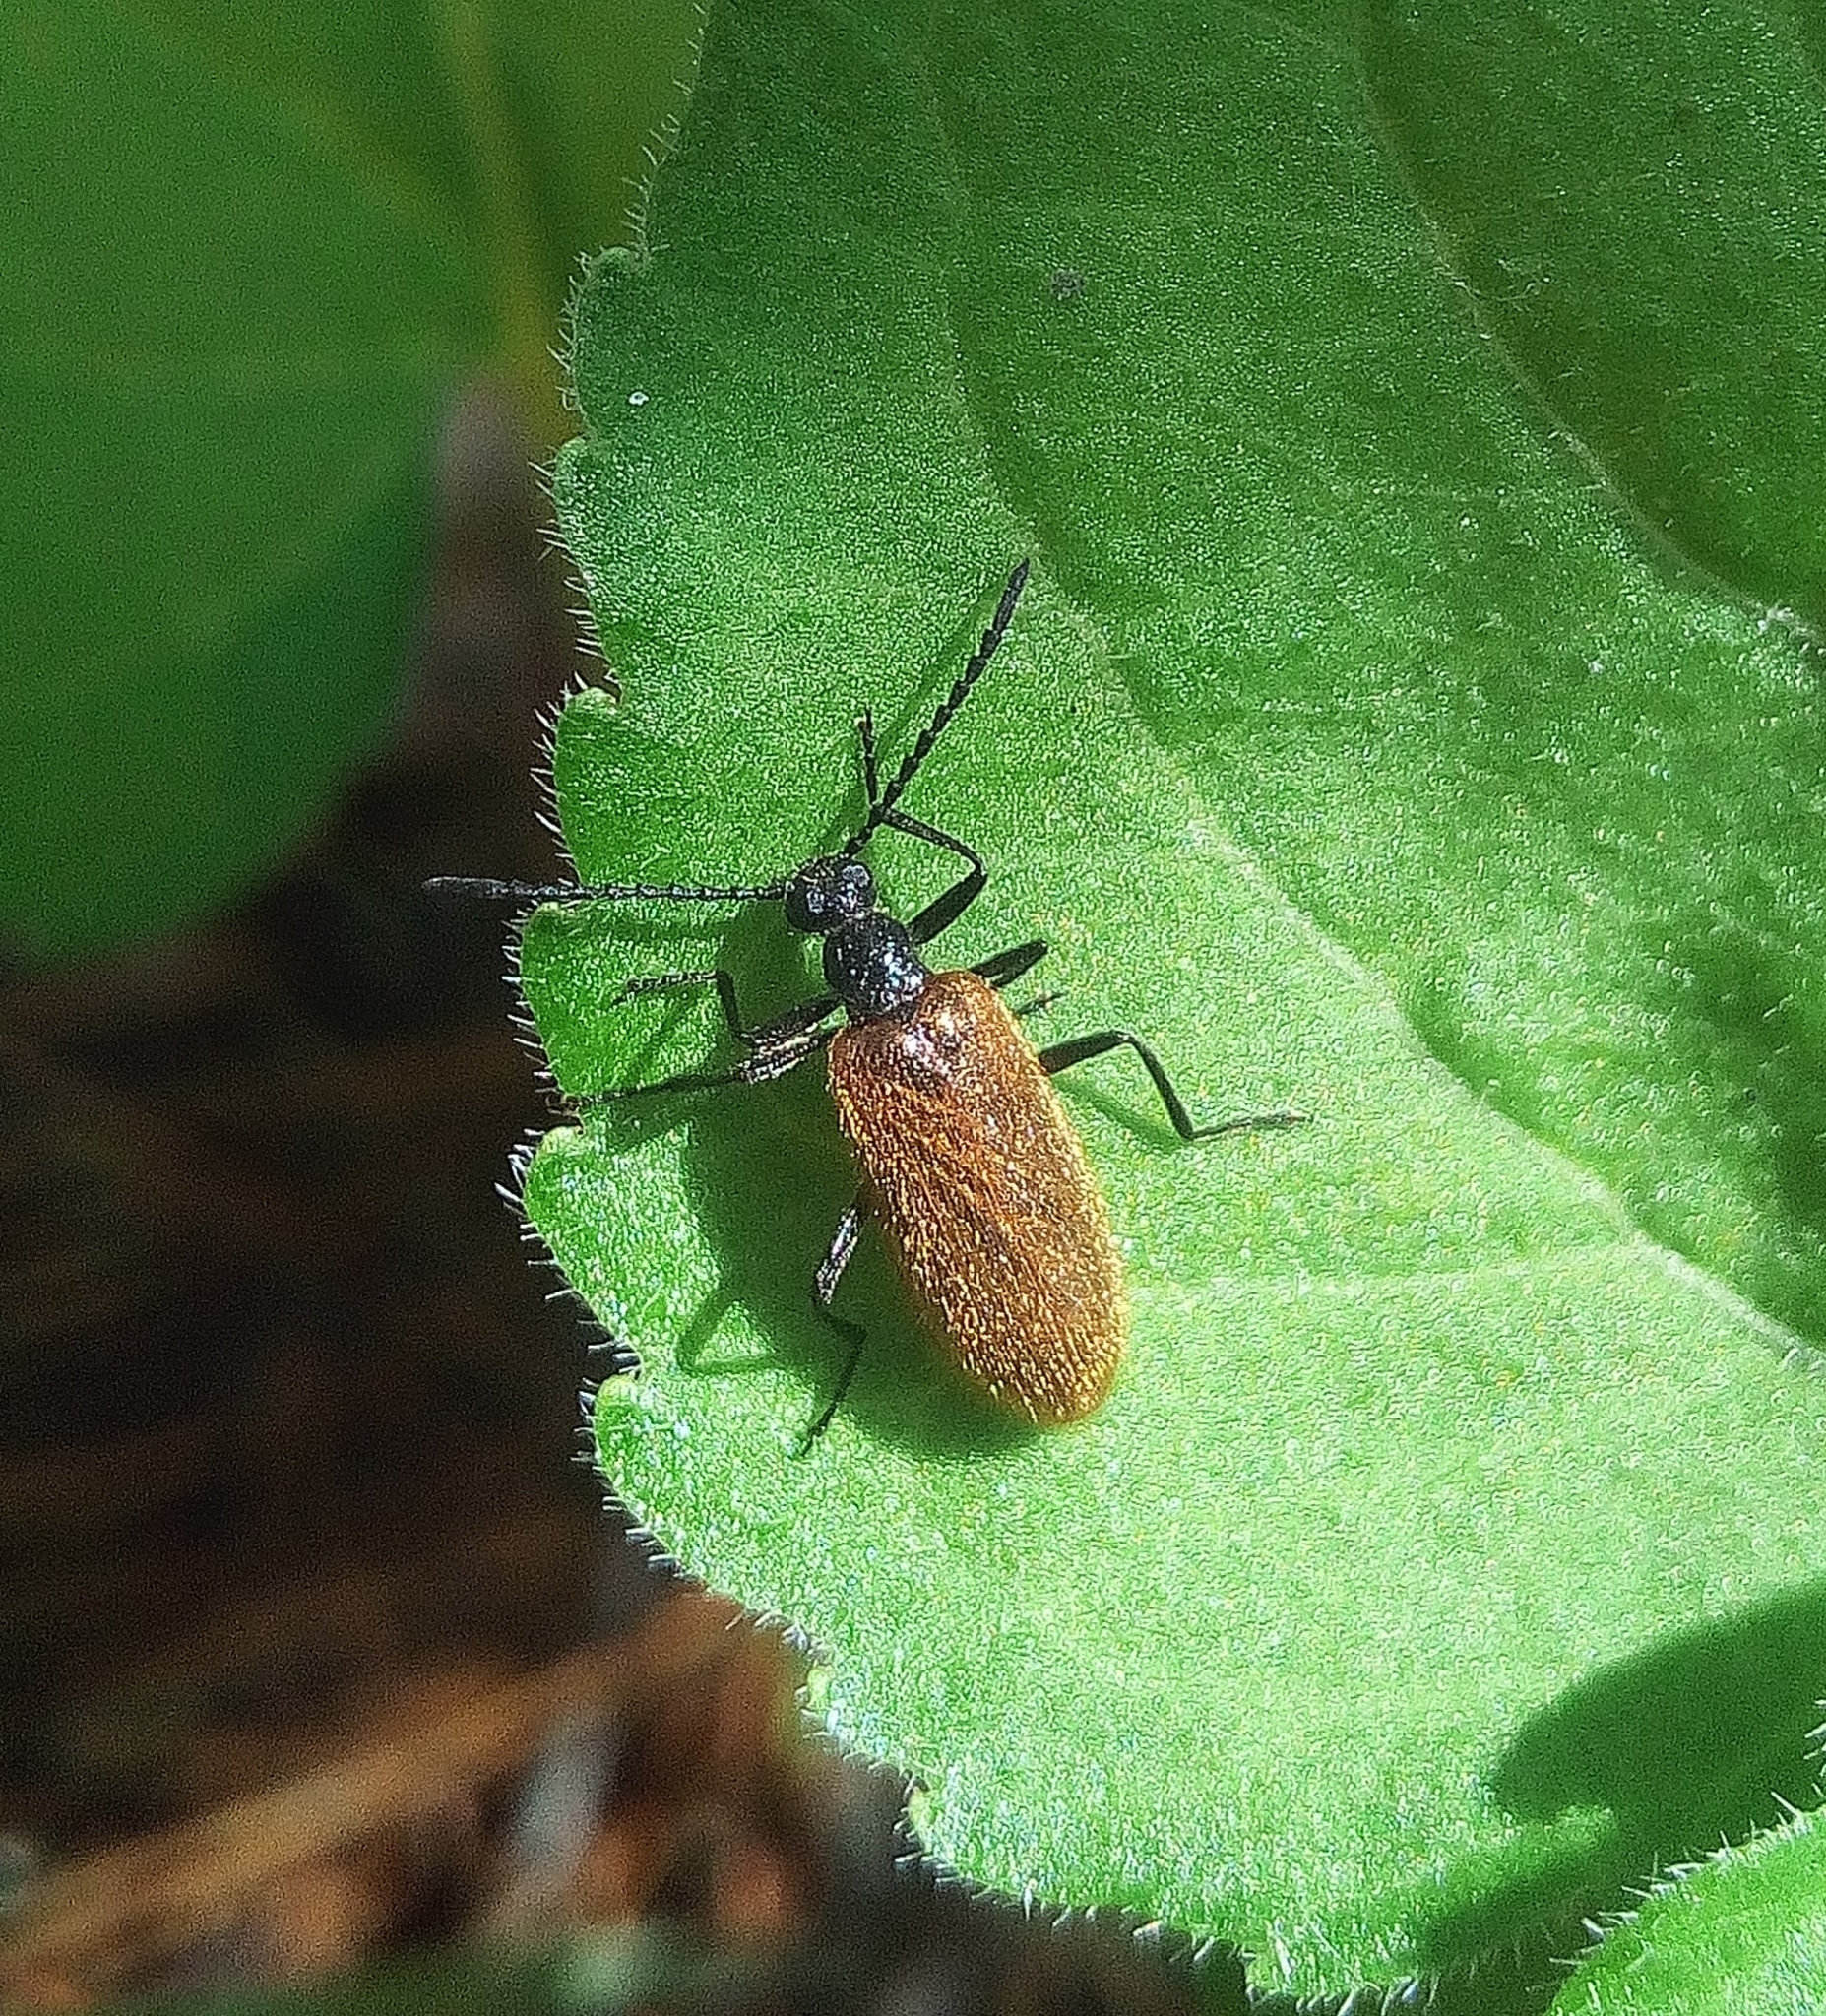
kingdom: Animalia
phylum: Arthropoda
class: Insecta
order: Coleoptera
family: Tenebrionidae
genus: Lagria
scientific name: Lagria hirta
